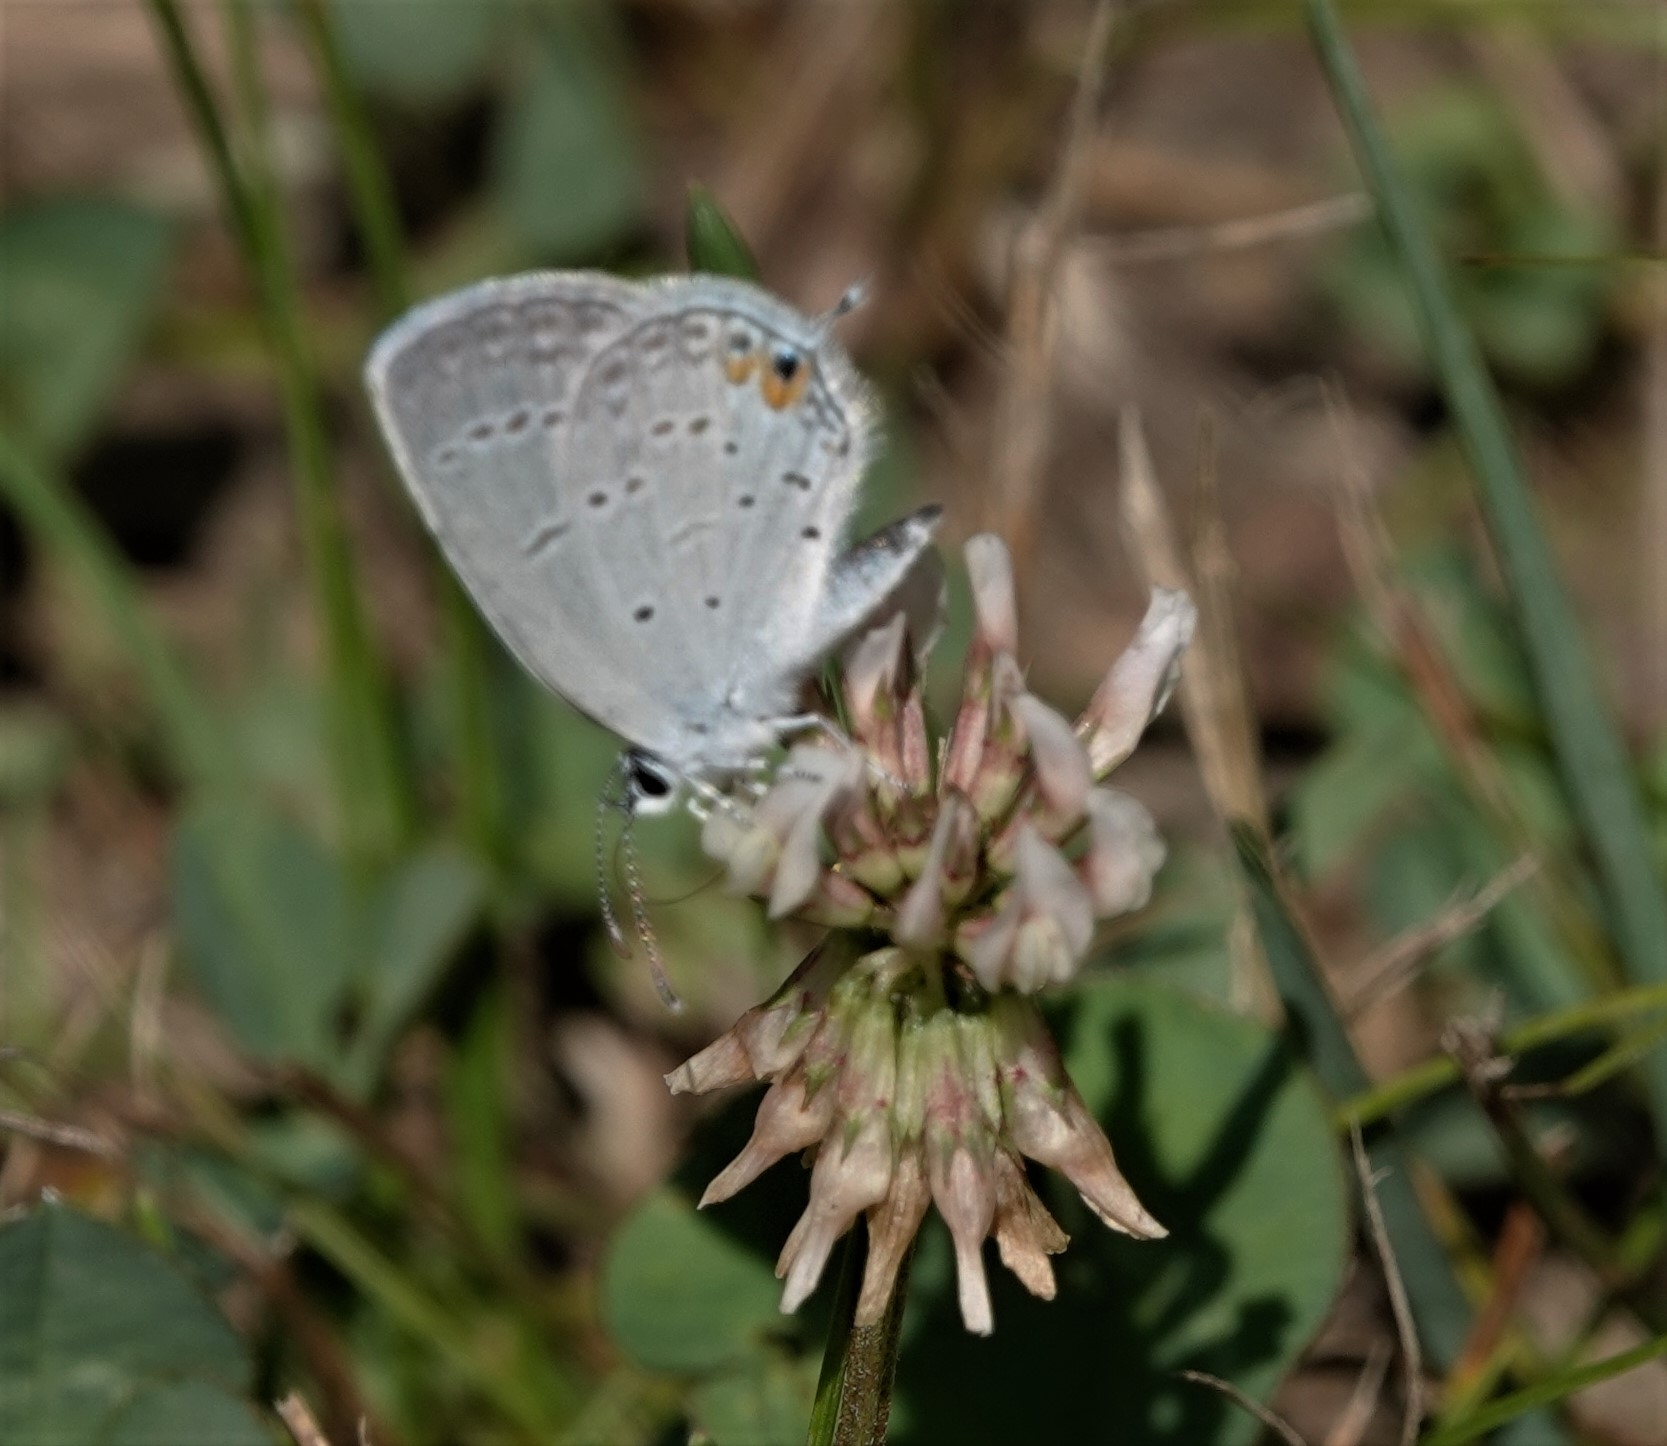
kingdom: Animalia
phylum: Arthropoda
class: Insecta
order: Lepidoptera
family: Lycaenidae
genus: Elkalyce
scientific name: Elkalyce comyntas
